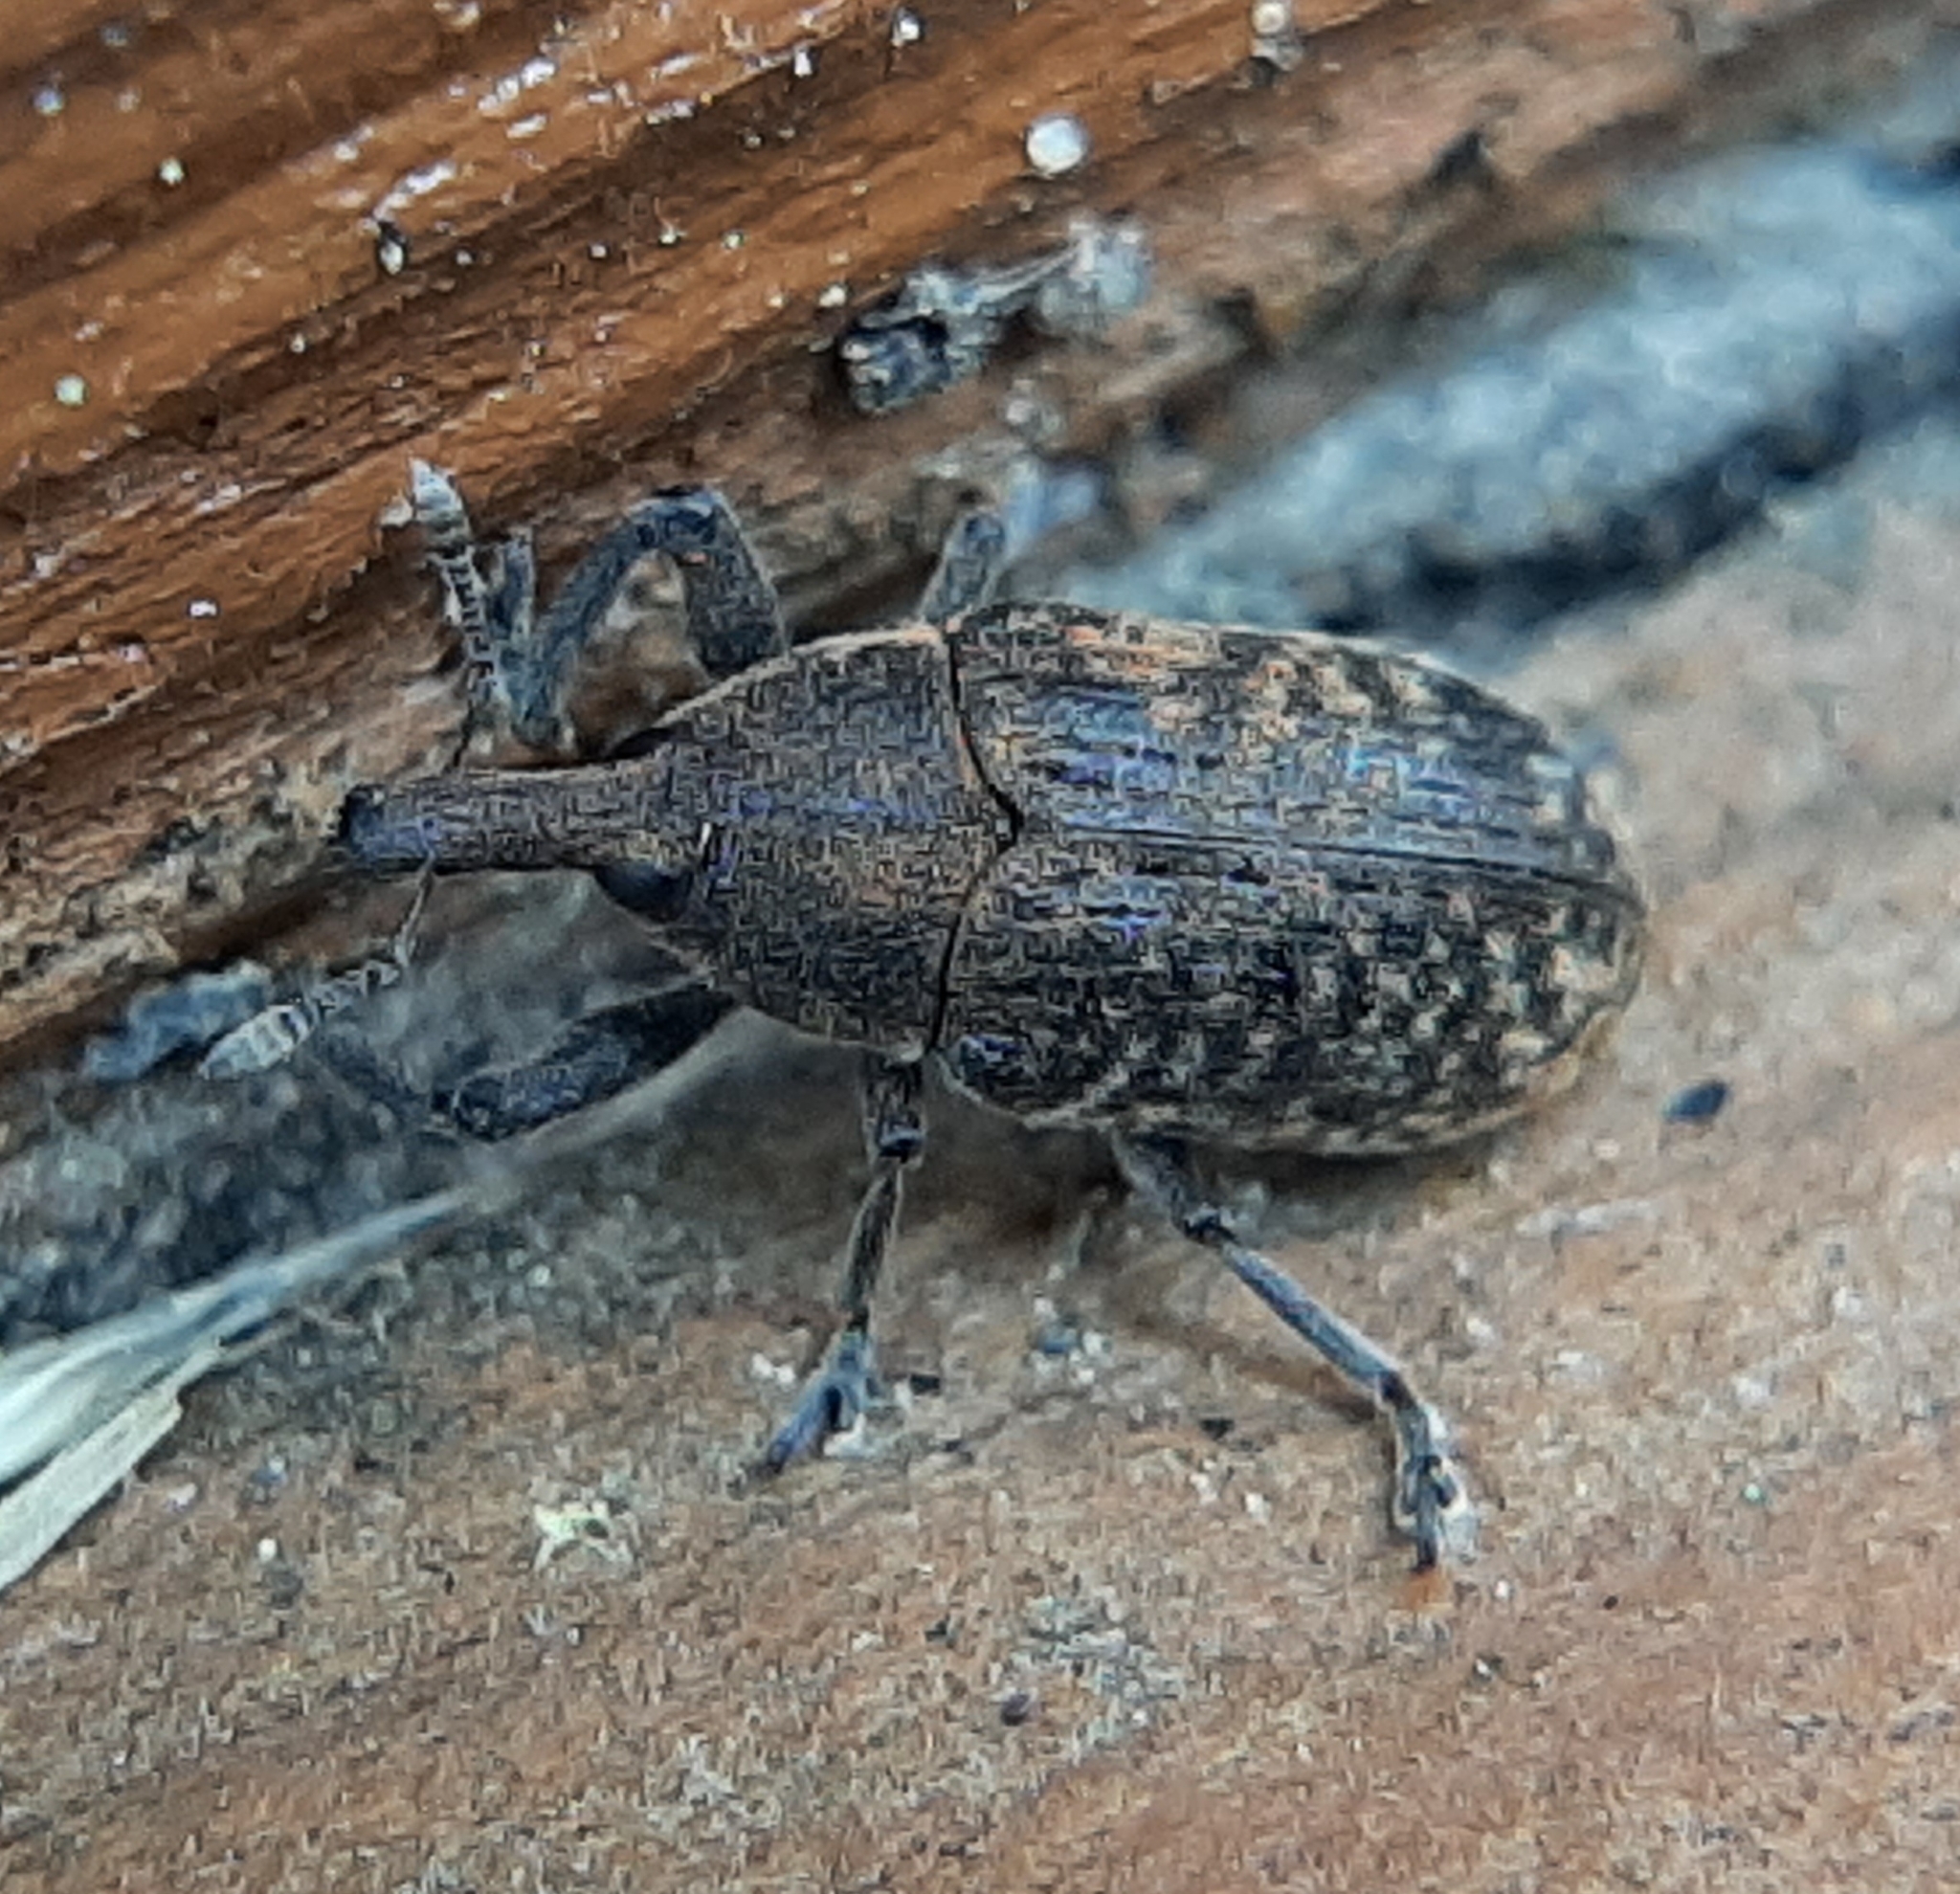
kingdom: Animalia
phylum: Arthropoda
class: Insecta
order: Coleoptera
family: Curculionidae
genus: Larinus
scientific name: Larinus carlinae
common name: Weevil
